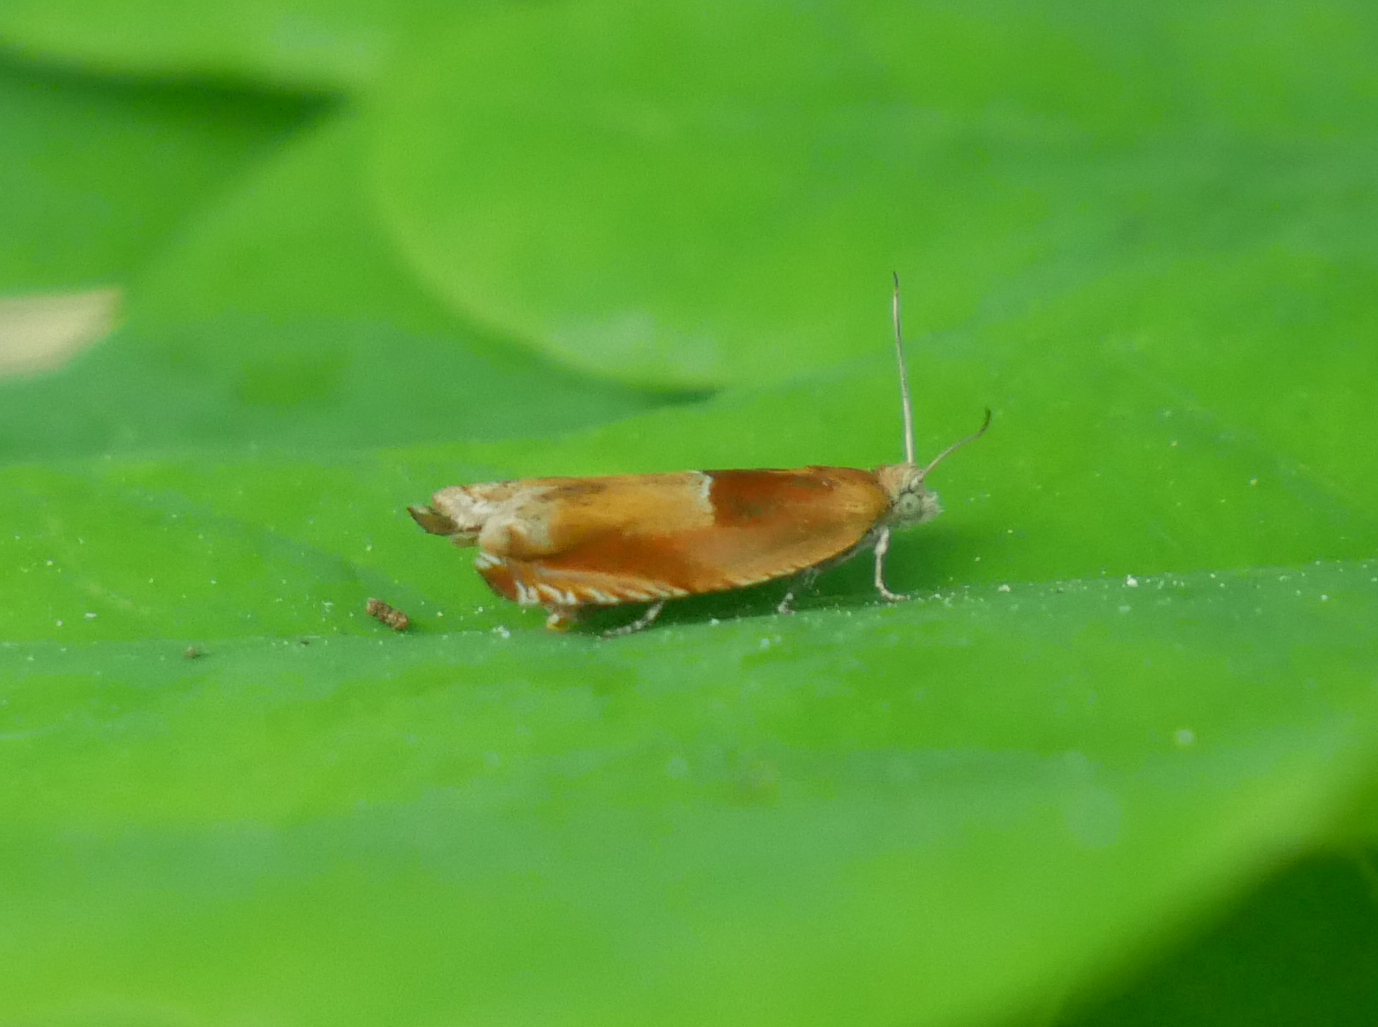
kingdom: Animalia
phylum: Arthropoda
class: Insecta
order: Lepidoptera
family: Tortricidae
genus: Ancylis
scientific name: Ancylis mitterbacheriana
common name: Red roller
